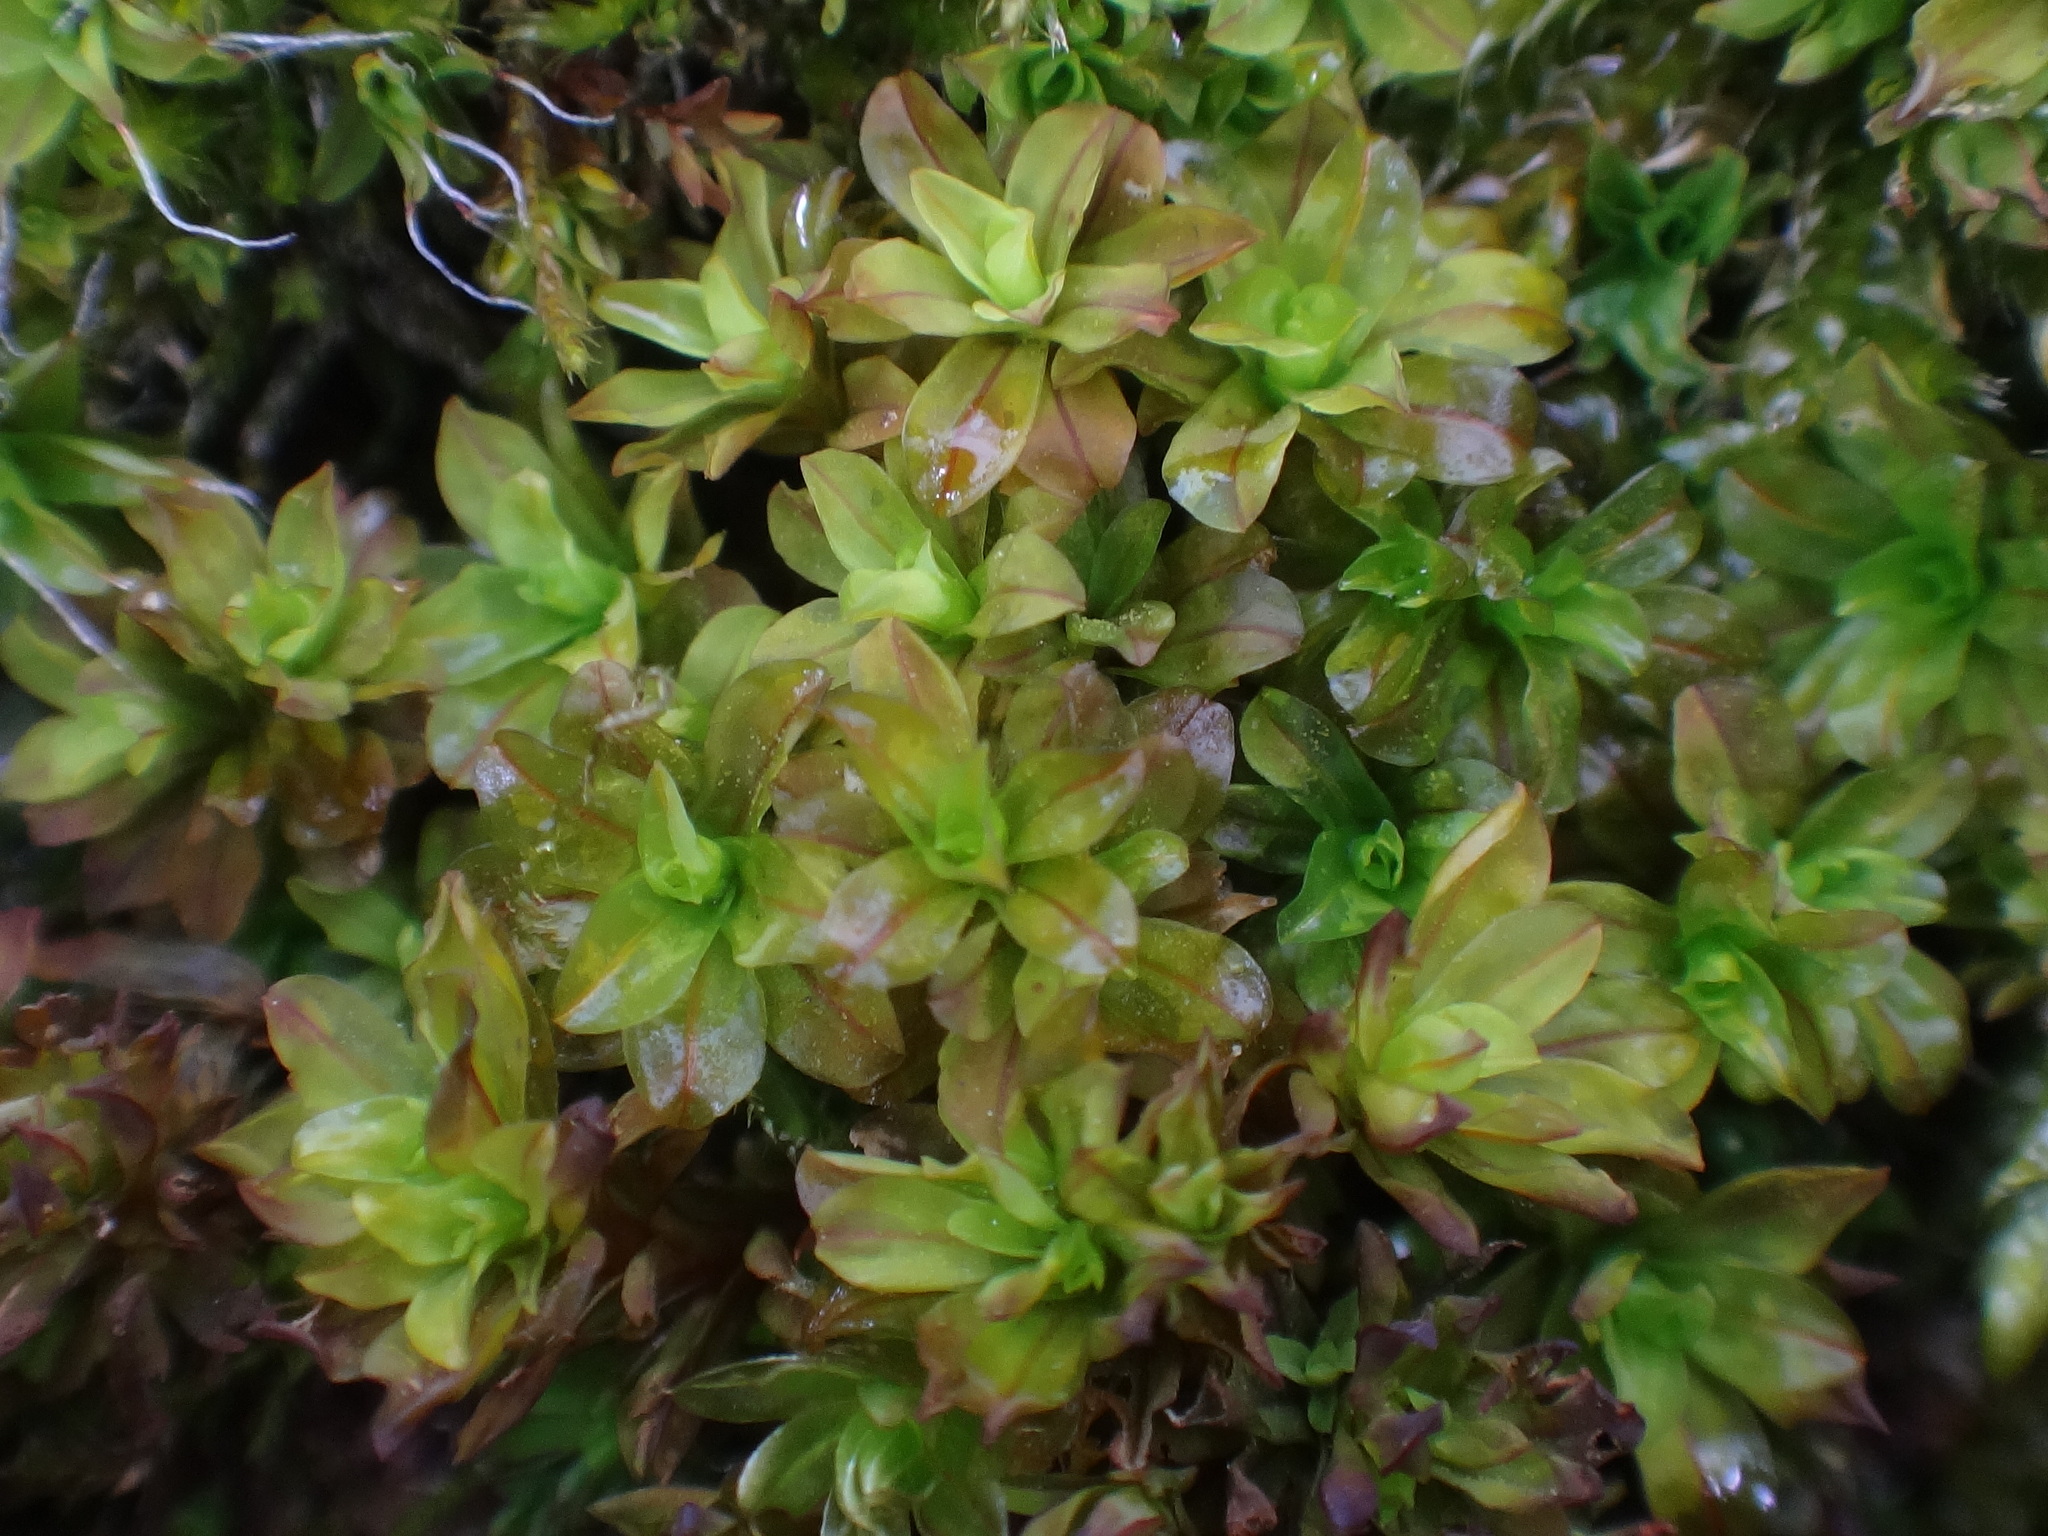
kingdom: Plantae
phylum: Bryophyta
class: Bryopsida
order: Pottiales
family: Pottiaceae
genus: Syntrichia
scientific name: Syntrichia latifolia
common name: Water screw-moss
